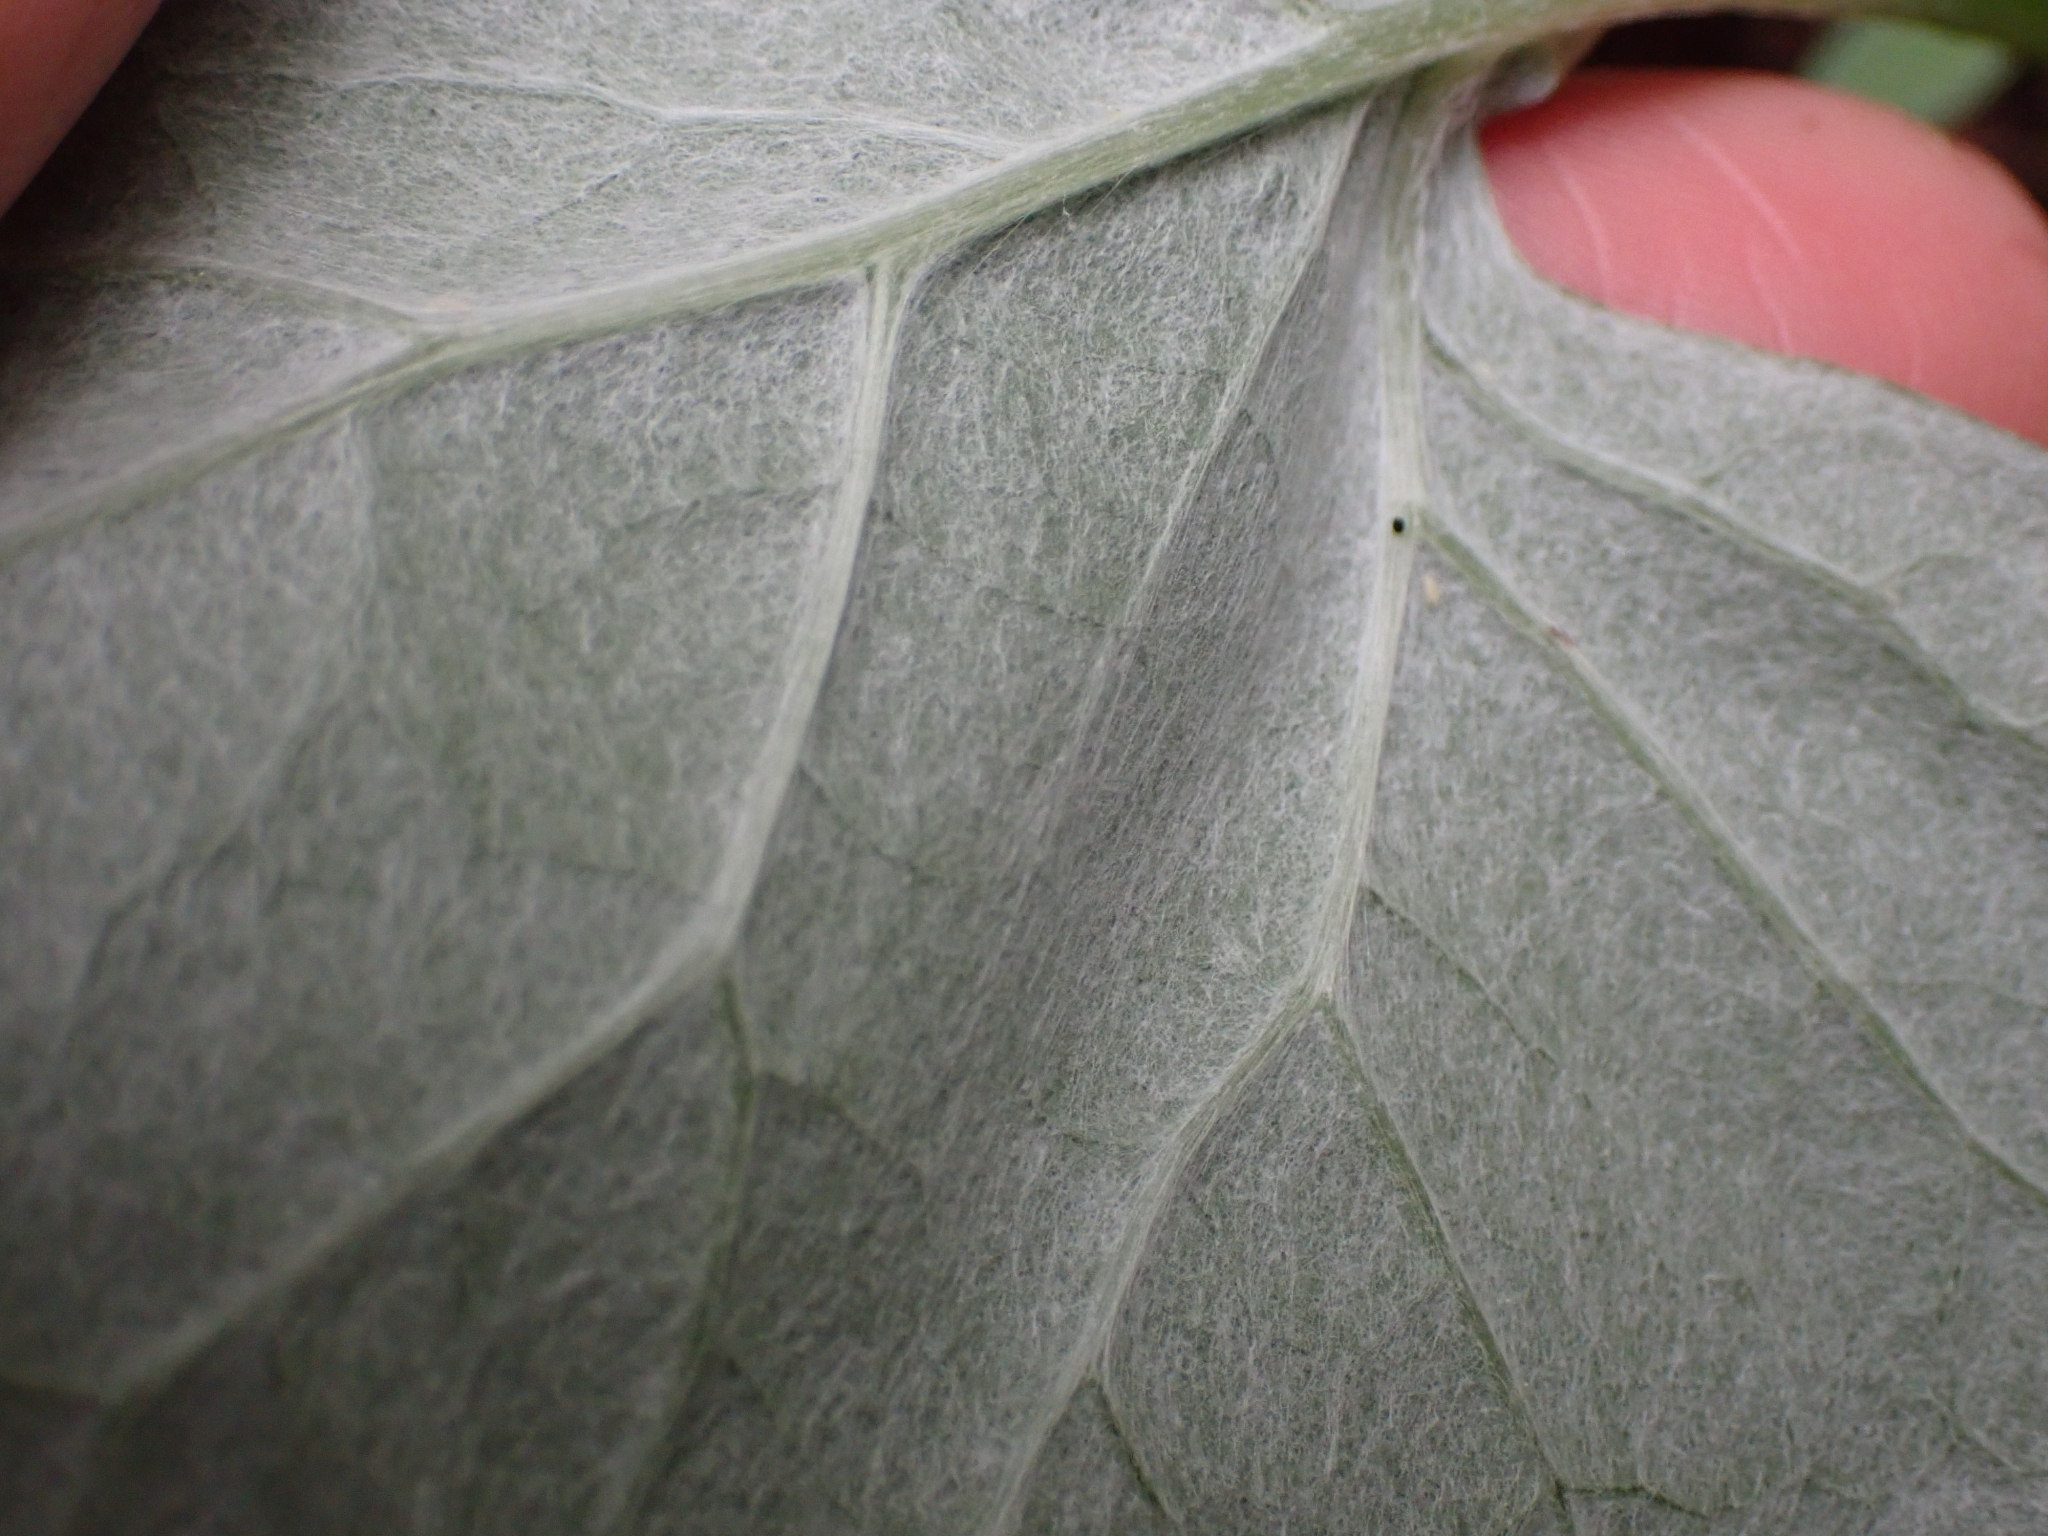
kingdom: Plantae
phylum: Tracheophyta
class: Magnoliopsida
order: Asterales
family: Asteraceae
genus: Adenocaulon
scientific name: Adenocaulon bicolor
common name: Trailplant
